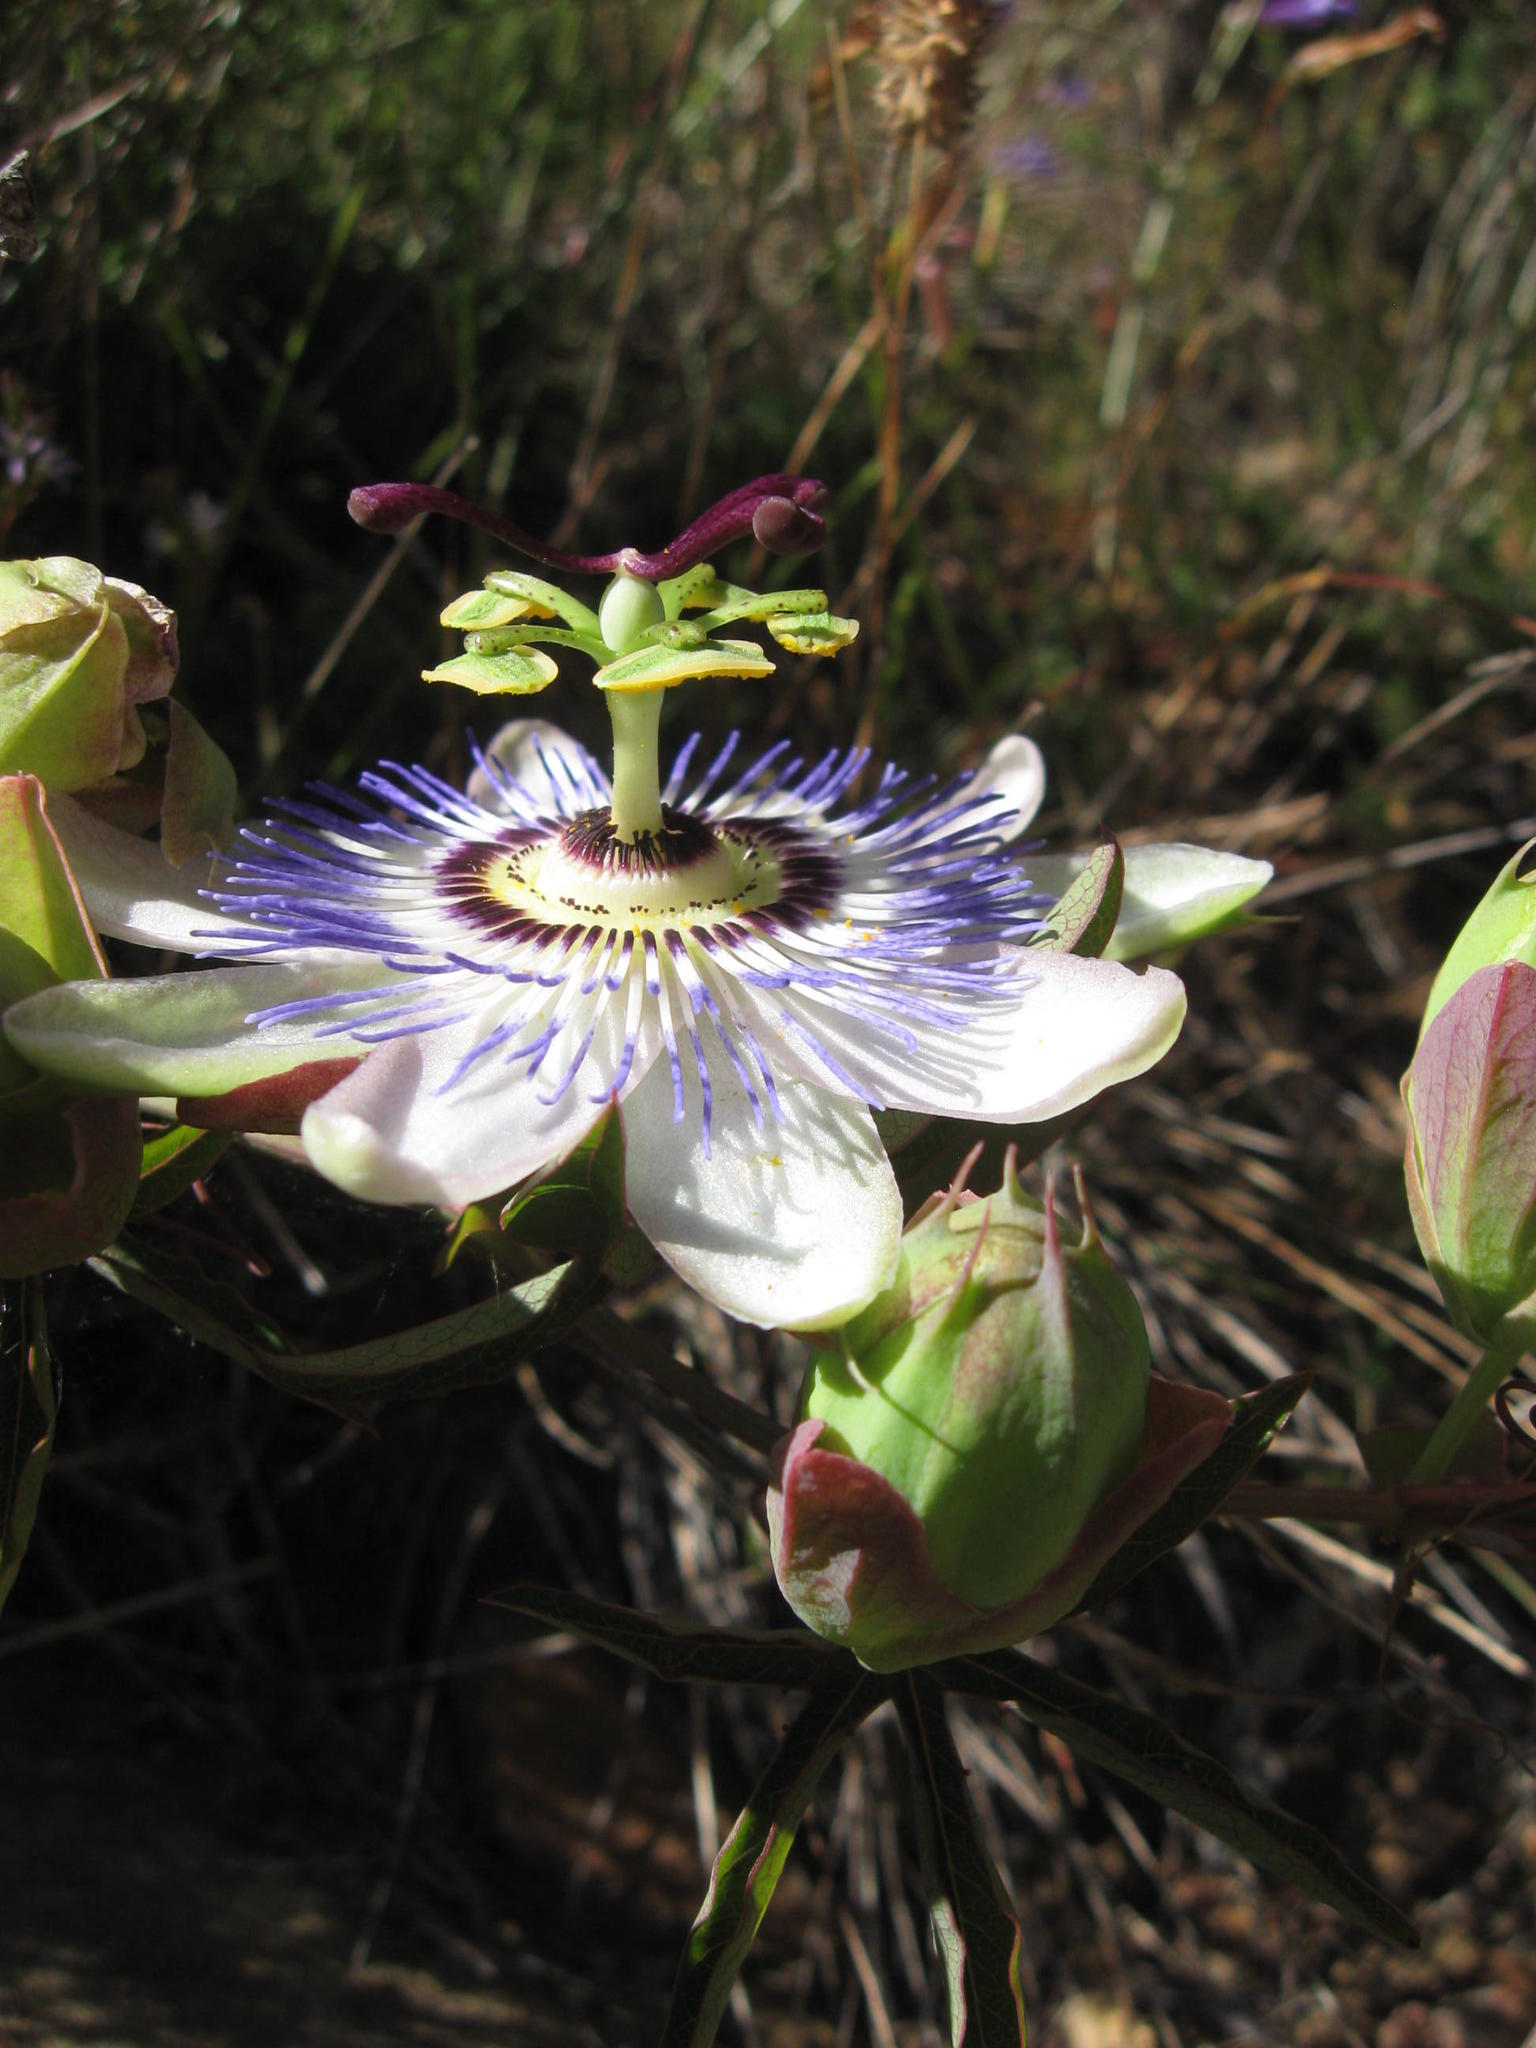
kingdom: Plantae
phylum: Tracheophyta
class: Magnoliopsida
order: Malpighiales
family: Passifloraceae
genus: Passiflora
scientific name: Passiflora caerulea
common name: Blue passionflower
